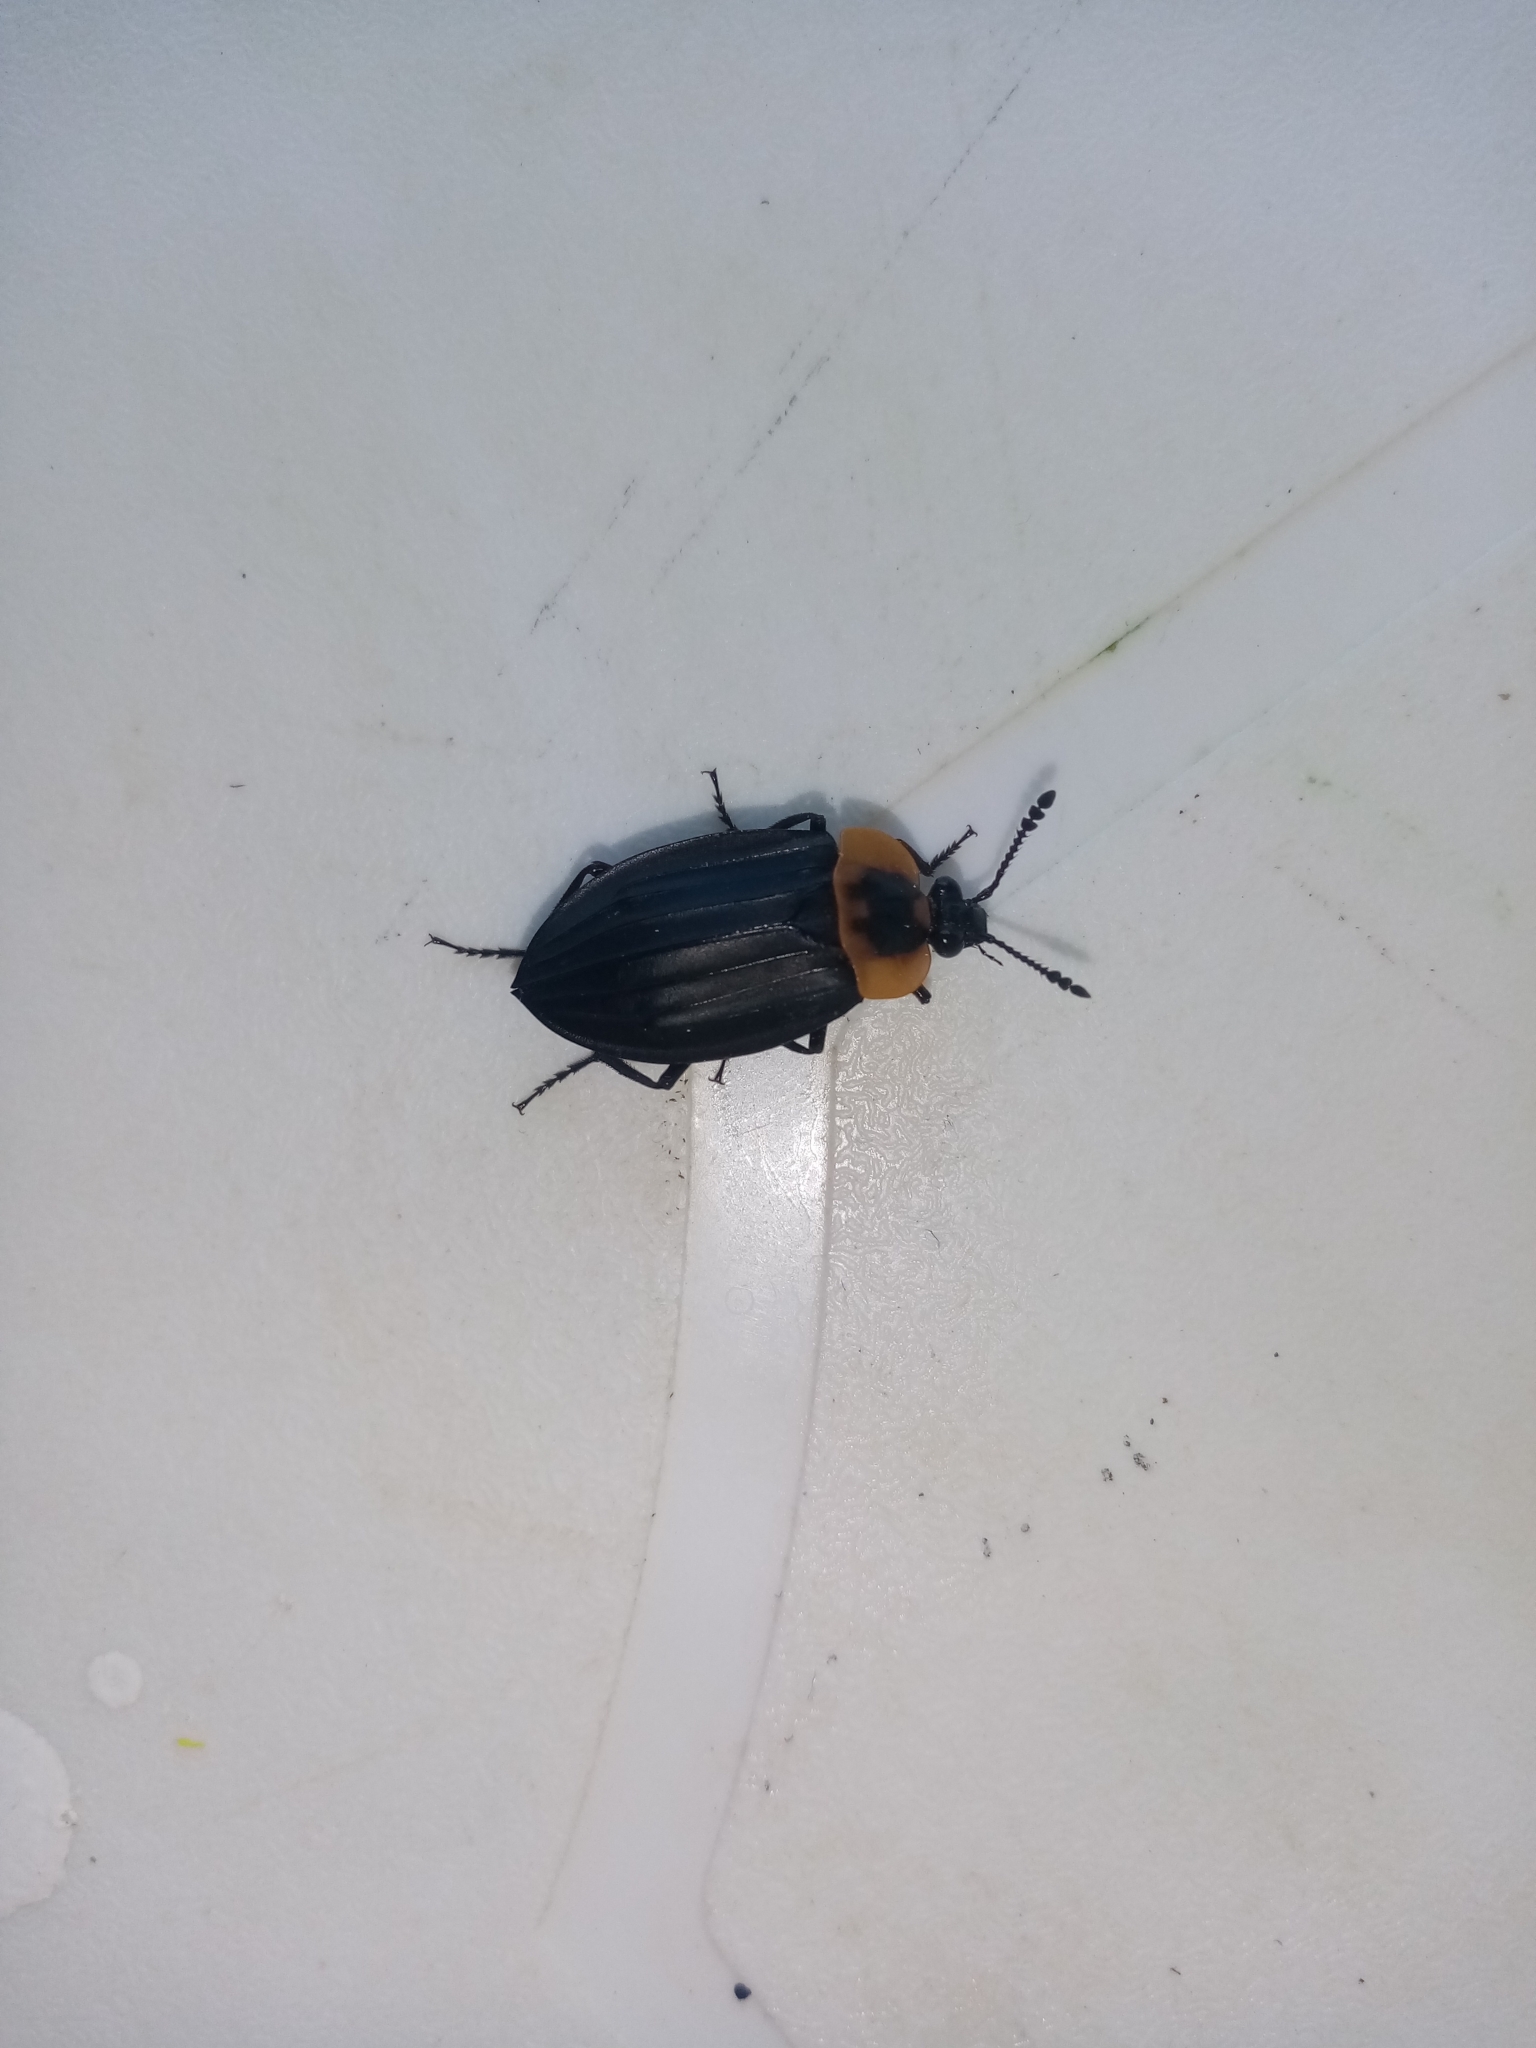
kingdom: Animalia
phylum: Arthropoda
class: Insecta
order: Coleoptera
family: Staphylinidae
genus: Oxelytrum
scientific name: Oxelytrum discicolle
